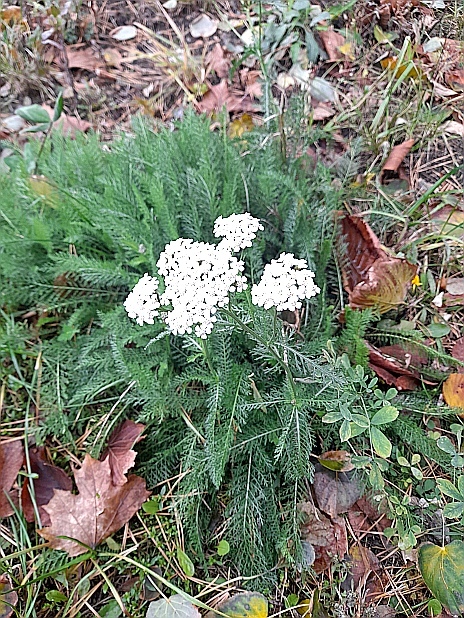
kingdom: Plantae
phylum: Tracheophyta
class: Magnoliopsida
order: Asterales
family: Asteraceae
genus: Achillea
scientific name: Achillea millefolium
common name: Yarrow
